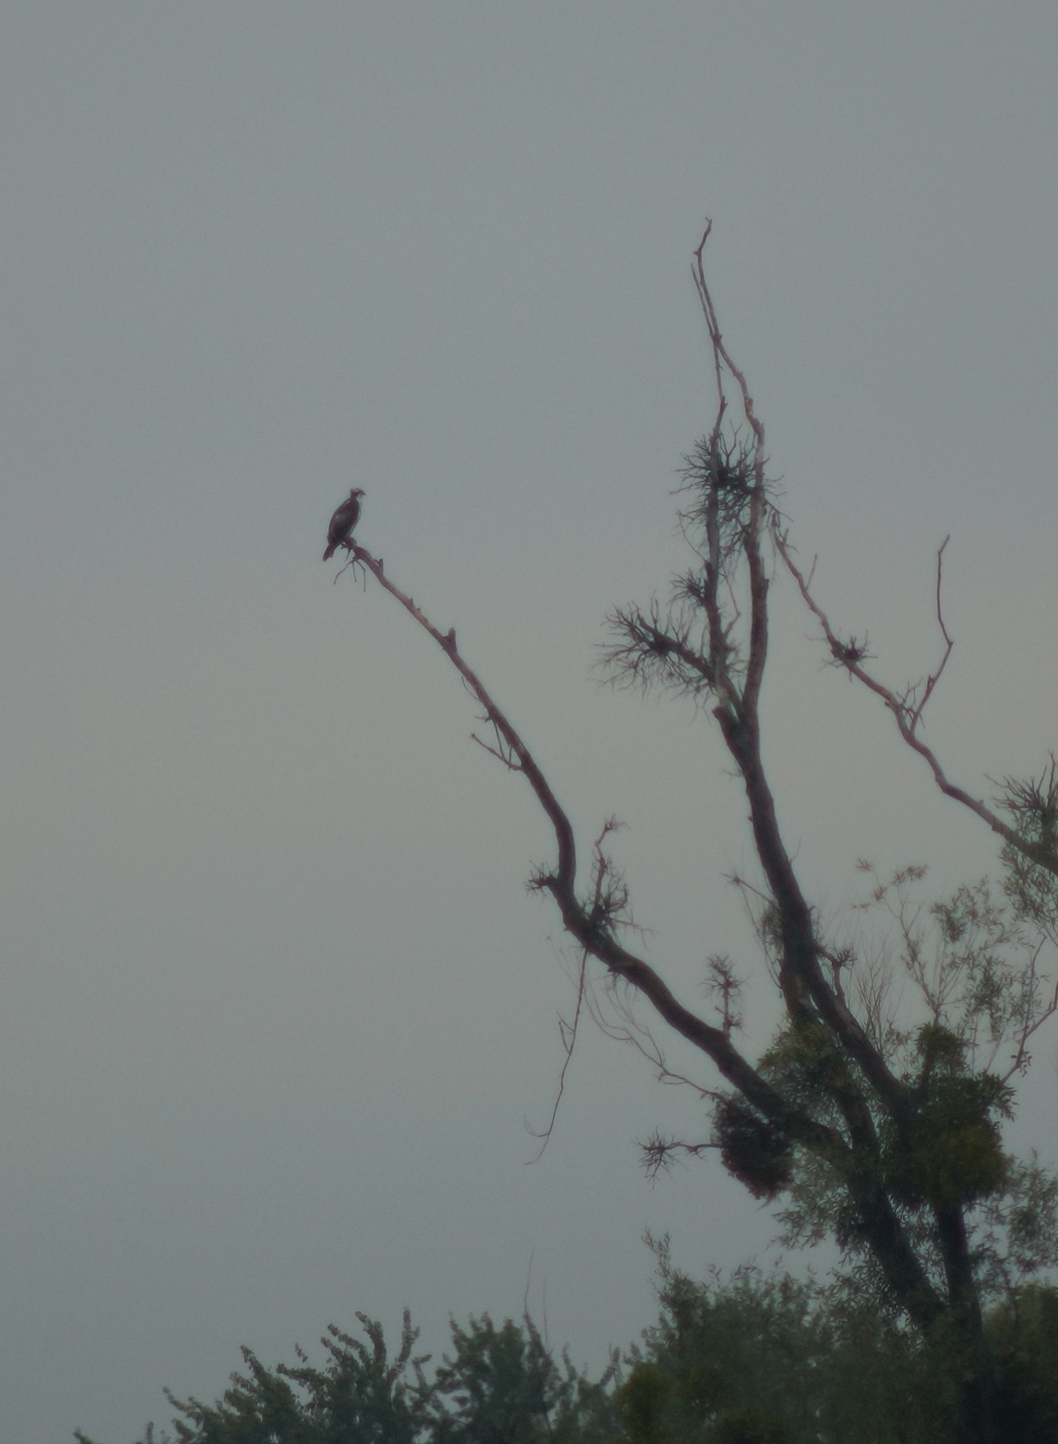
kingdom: Animalia
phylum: Chordata
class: Aves
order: Accipitriformes
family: Pandionidae
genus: Pandion
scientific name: Pandion haliaetus
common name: Osprey
